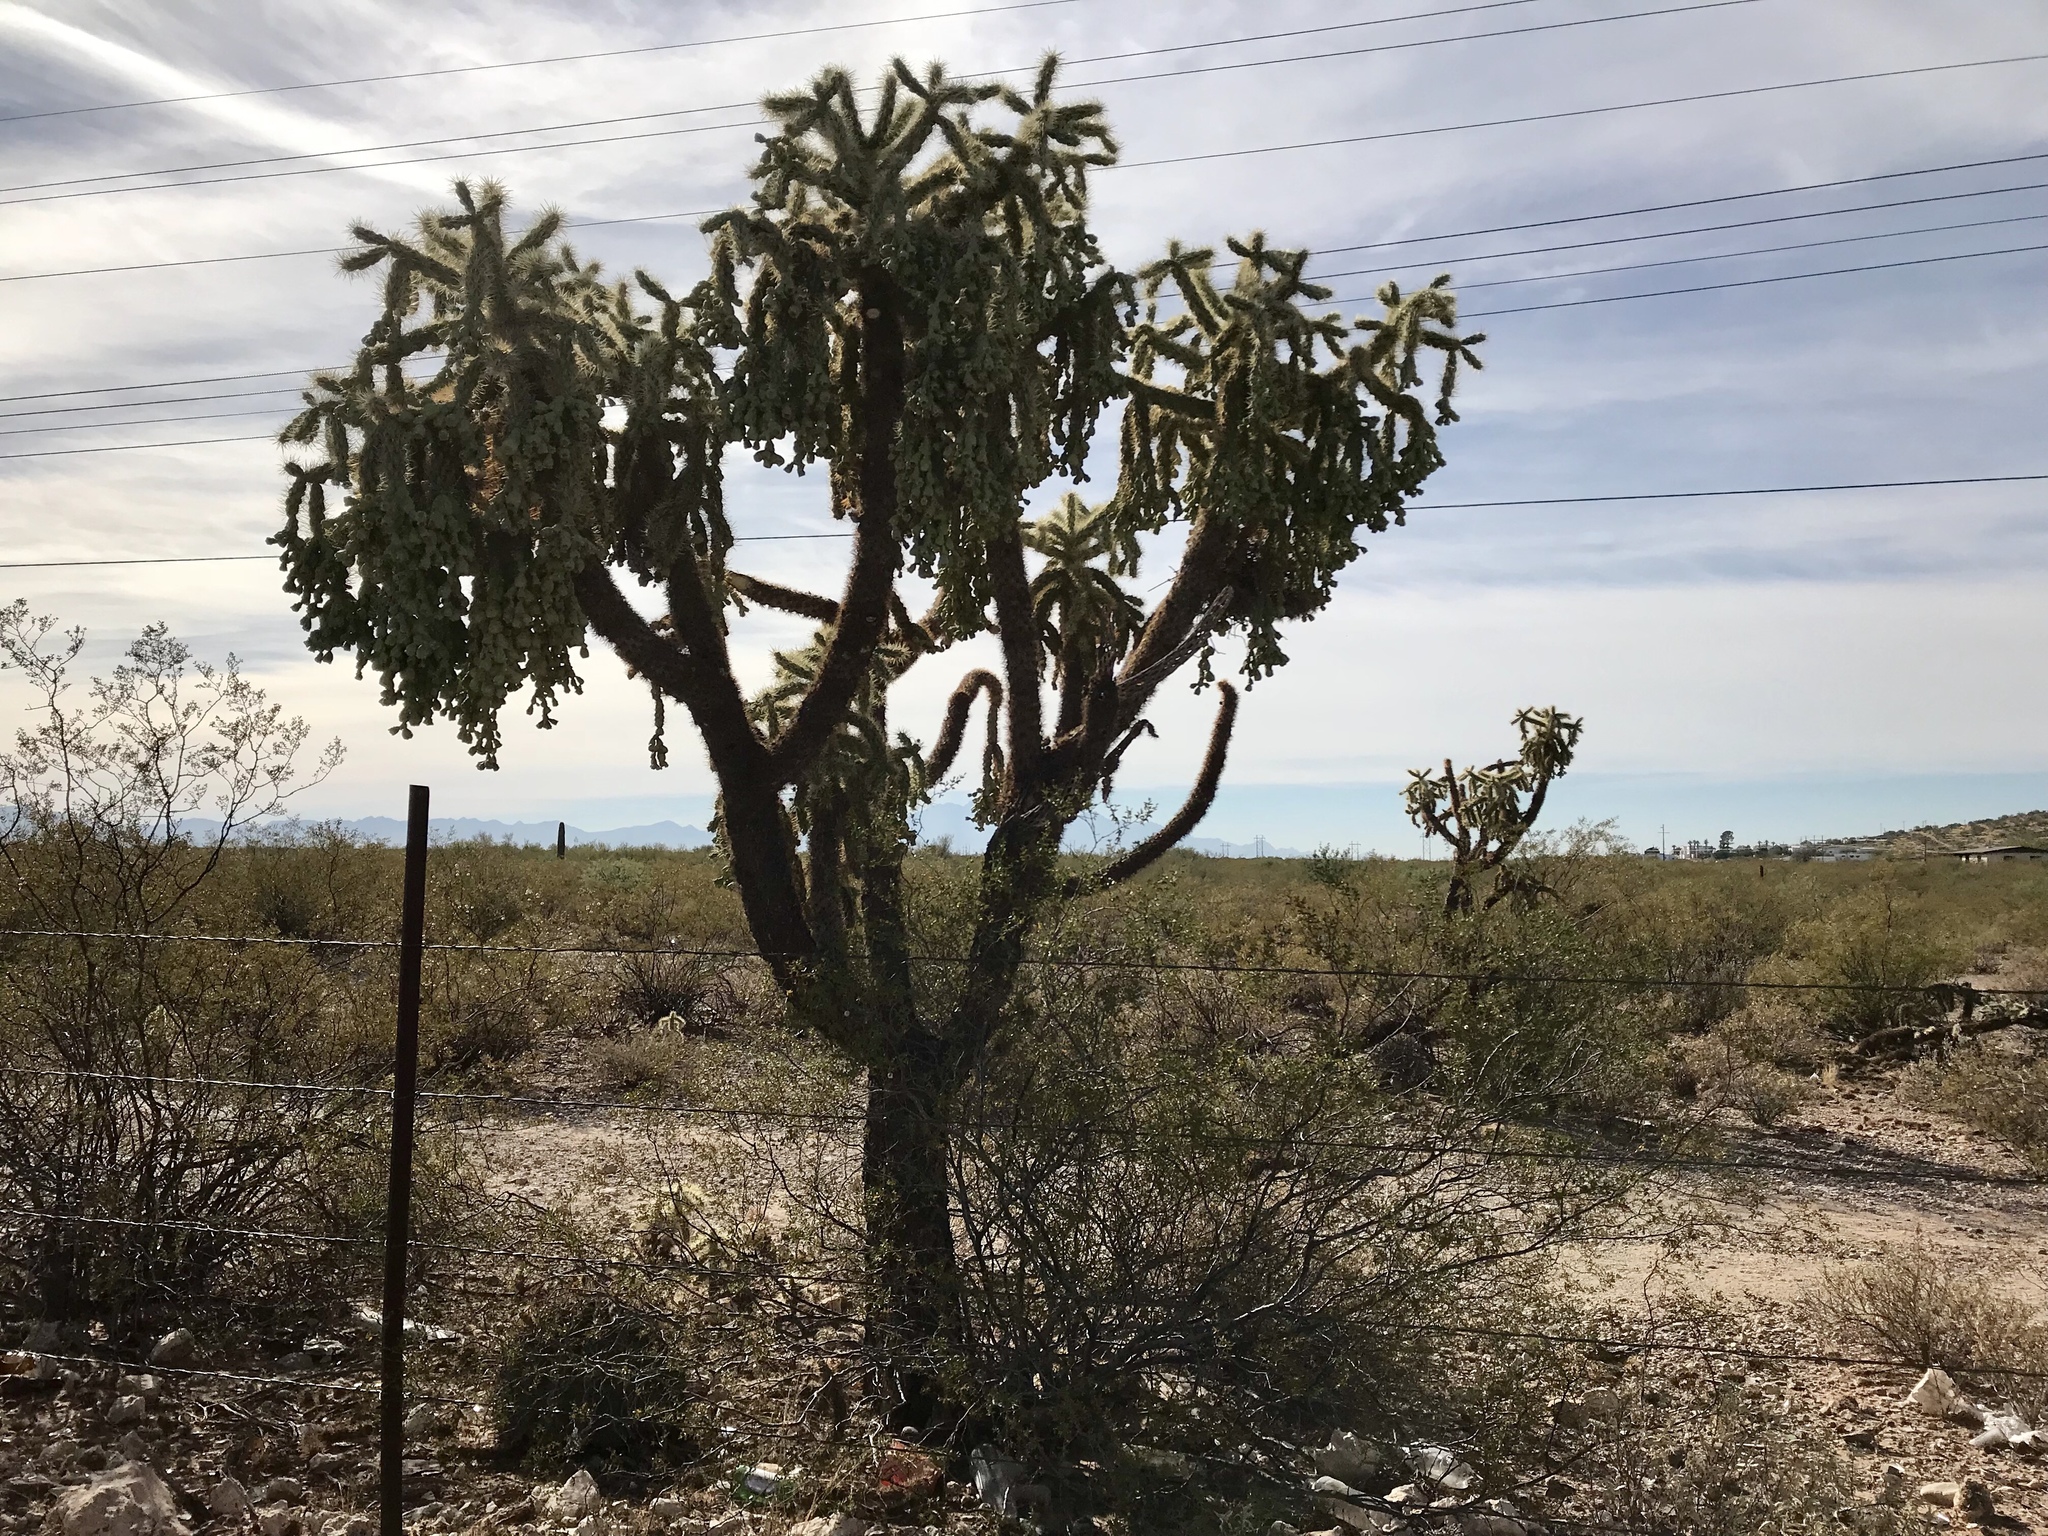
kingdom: Plantae
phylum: Tracheophyta
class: Magnoliopsida
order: Caryophyllales
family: Cactaceae
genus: Cylindropuntia
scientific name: Cylindropuntia fulgida
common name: Jumping cholla
